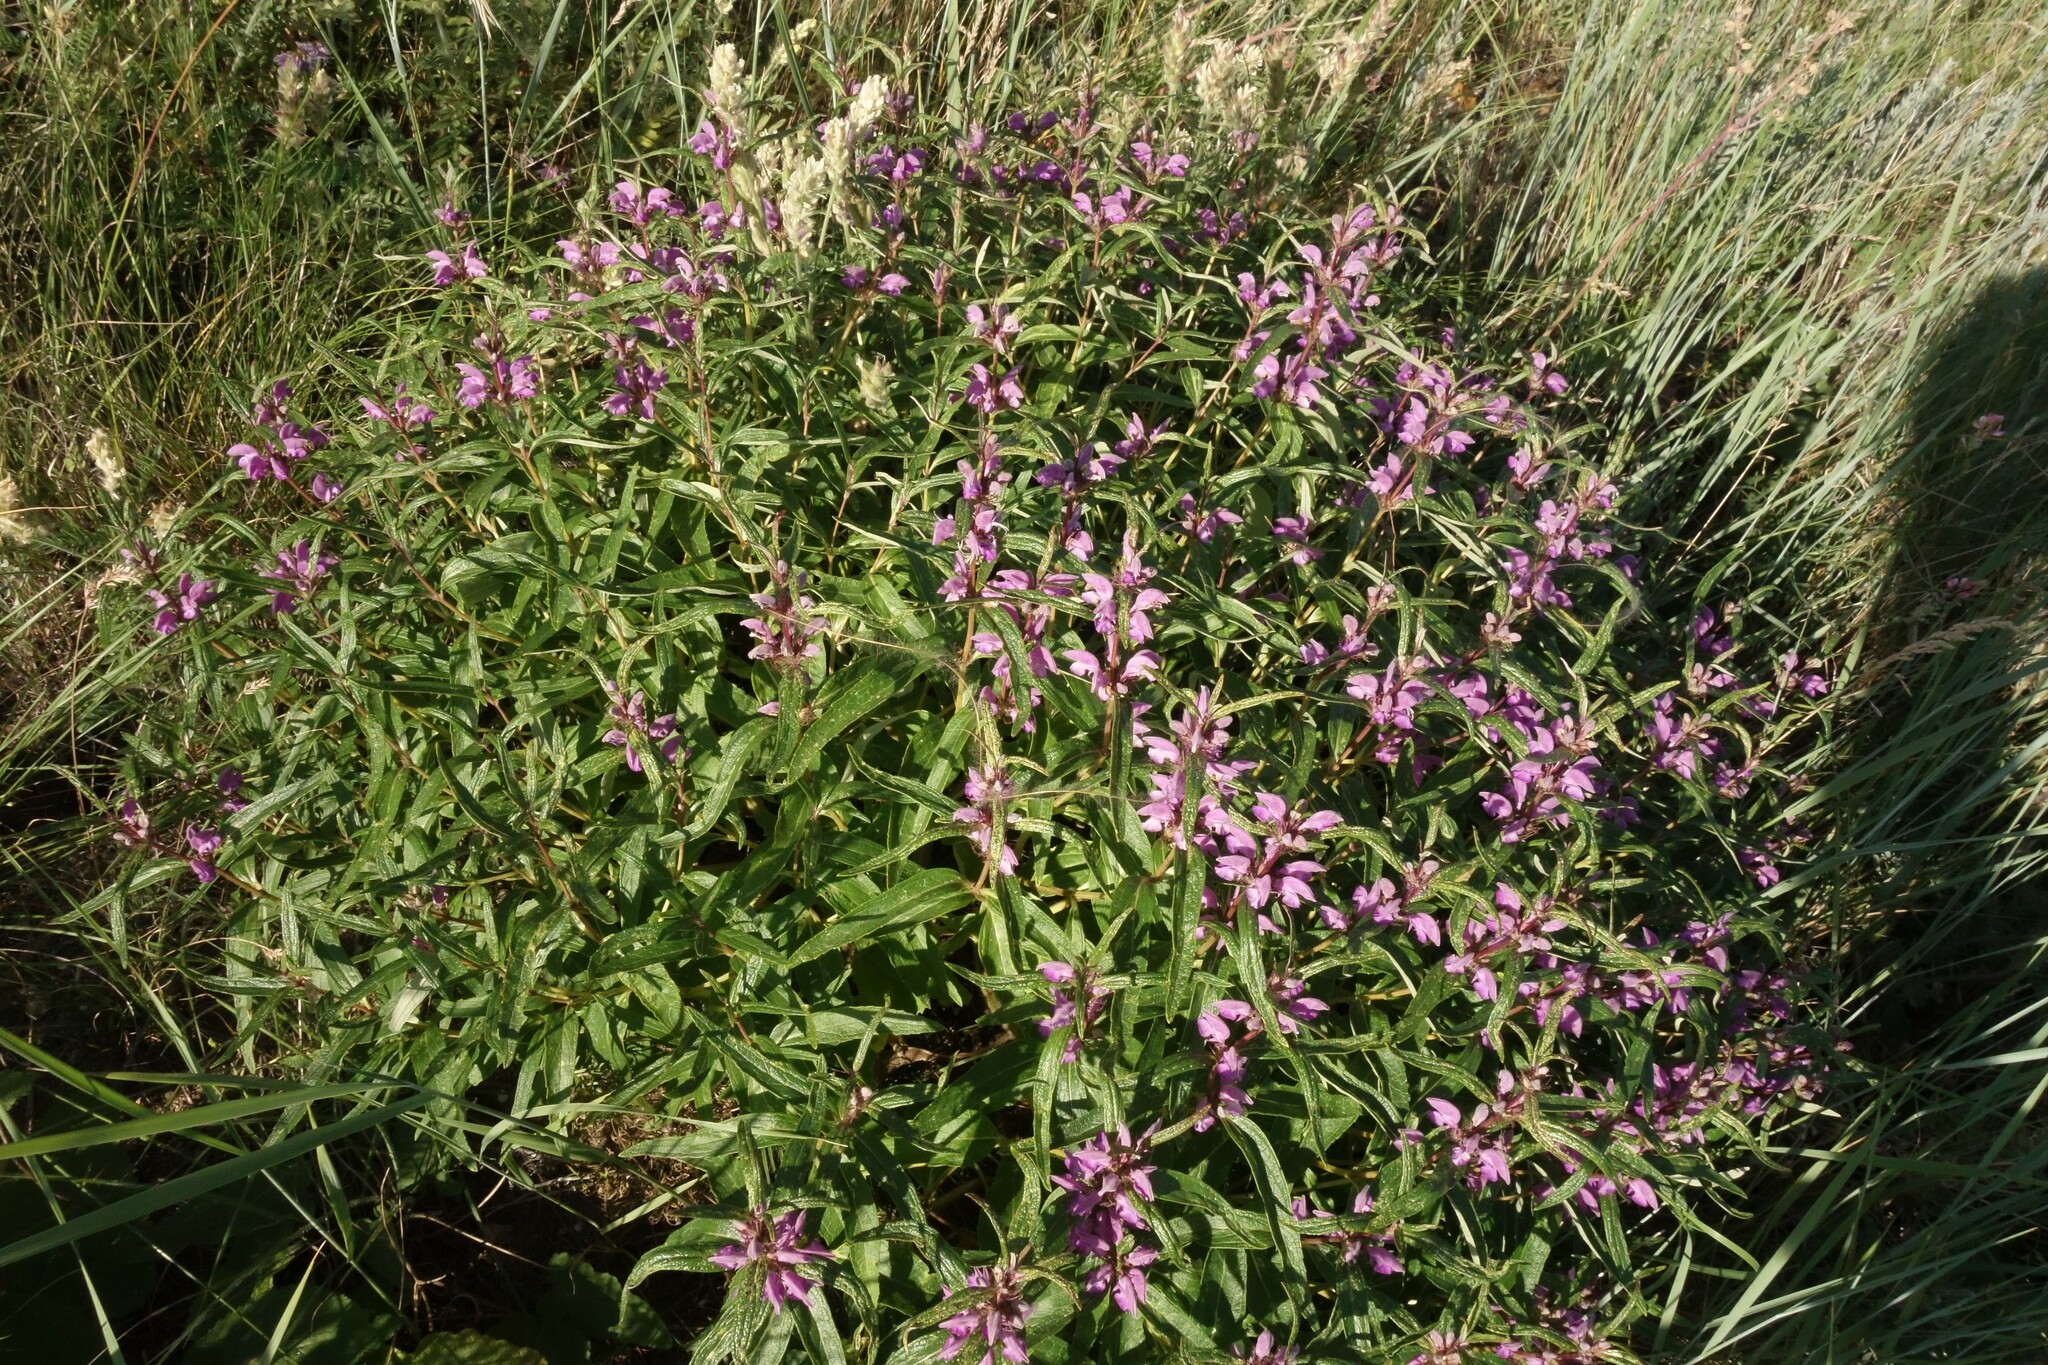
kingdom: Plantae
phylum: Tracheophyta
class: Magnoliopsida
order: Lamiales
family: Lamiaceae
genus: Phlomis
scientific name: Phlomis herba-venti
